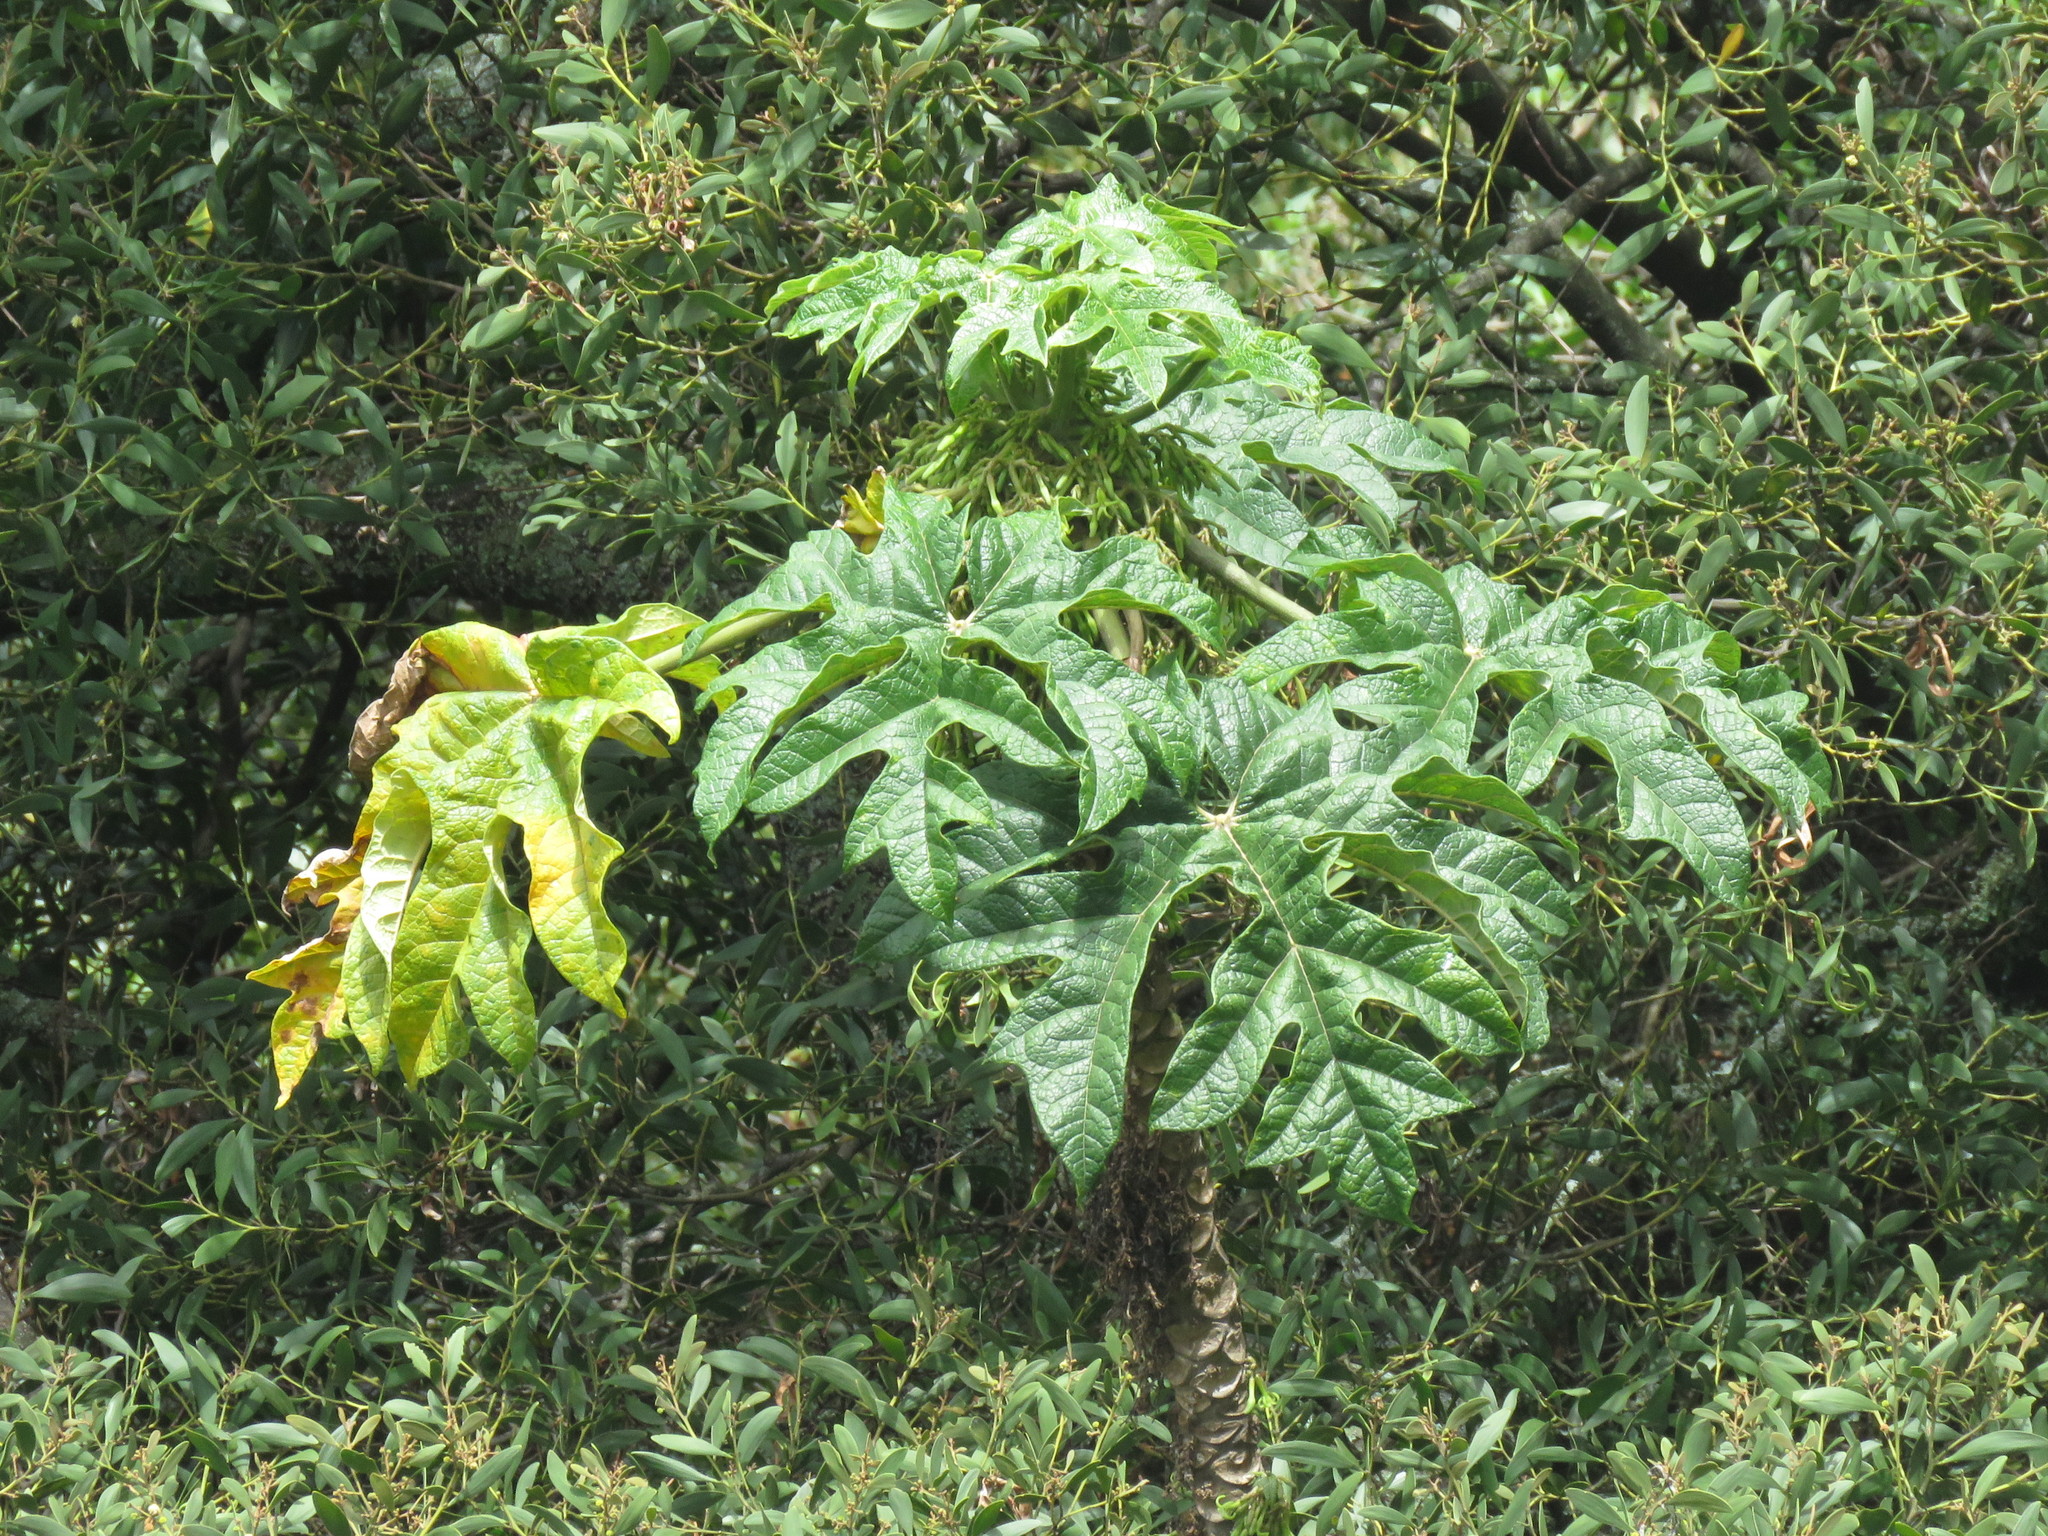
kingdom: Plantae
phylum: Tracheophyta
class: Magnoliopsida
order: Brassicales
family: Caricaceae
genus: Vasconcellea
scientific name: Vasconcellea pubescens
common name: Mountain papaya
